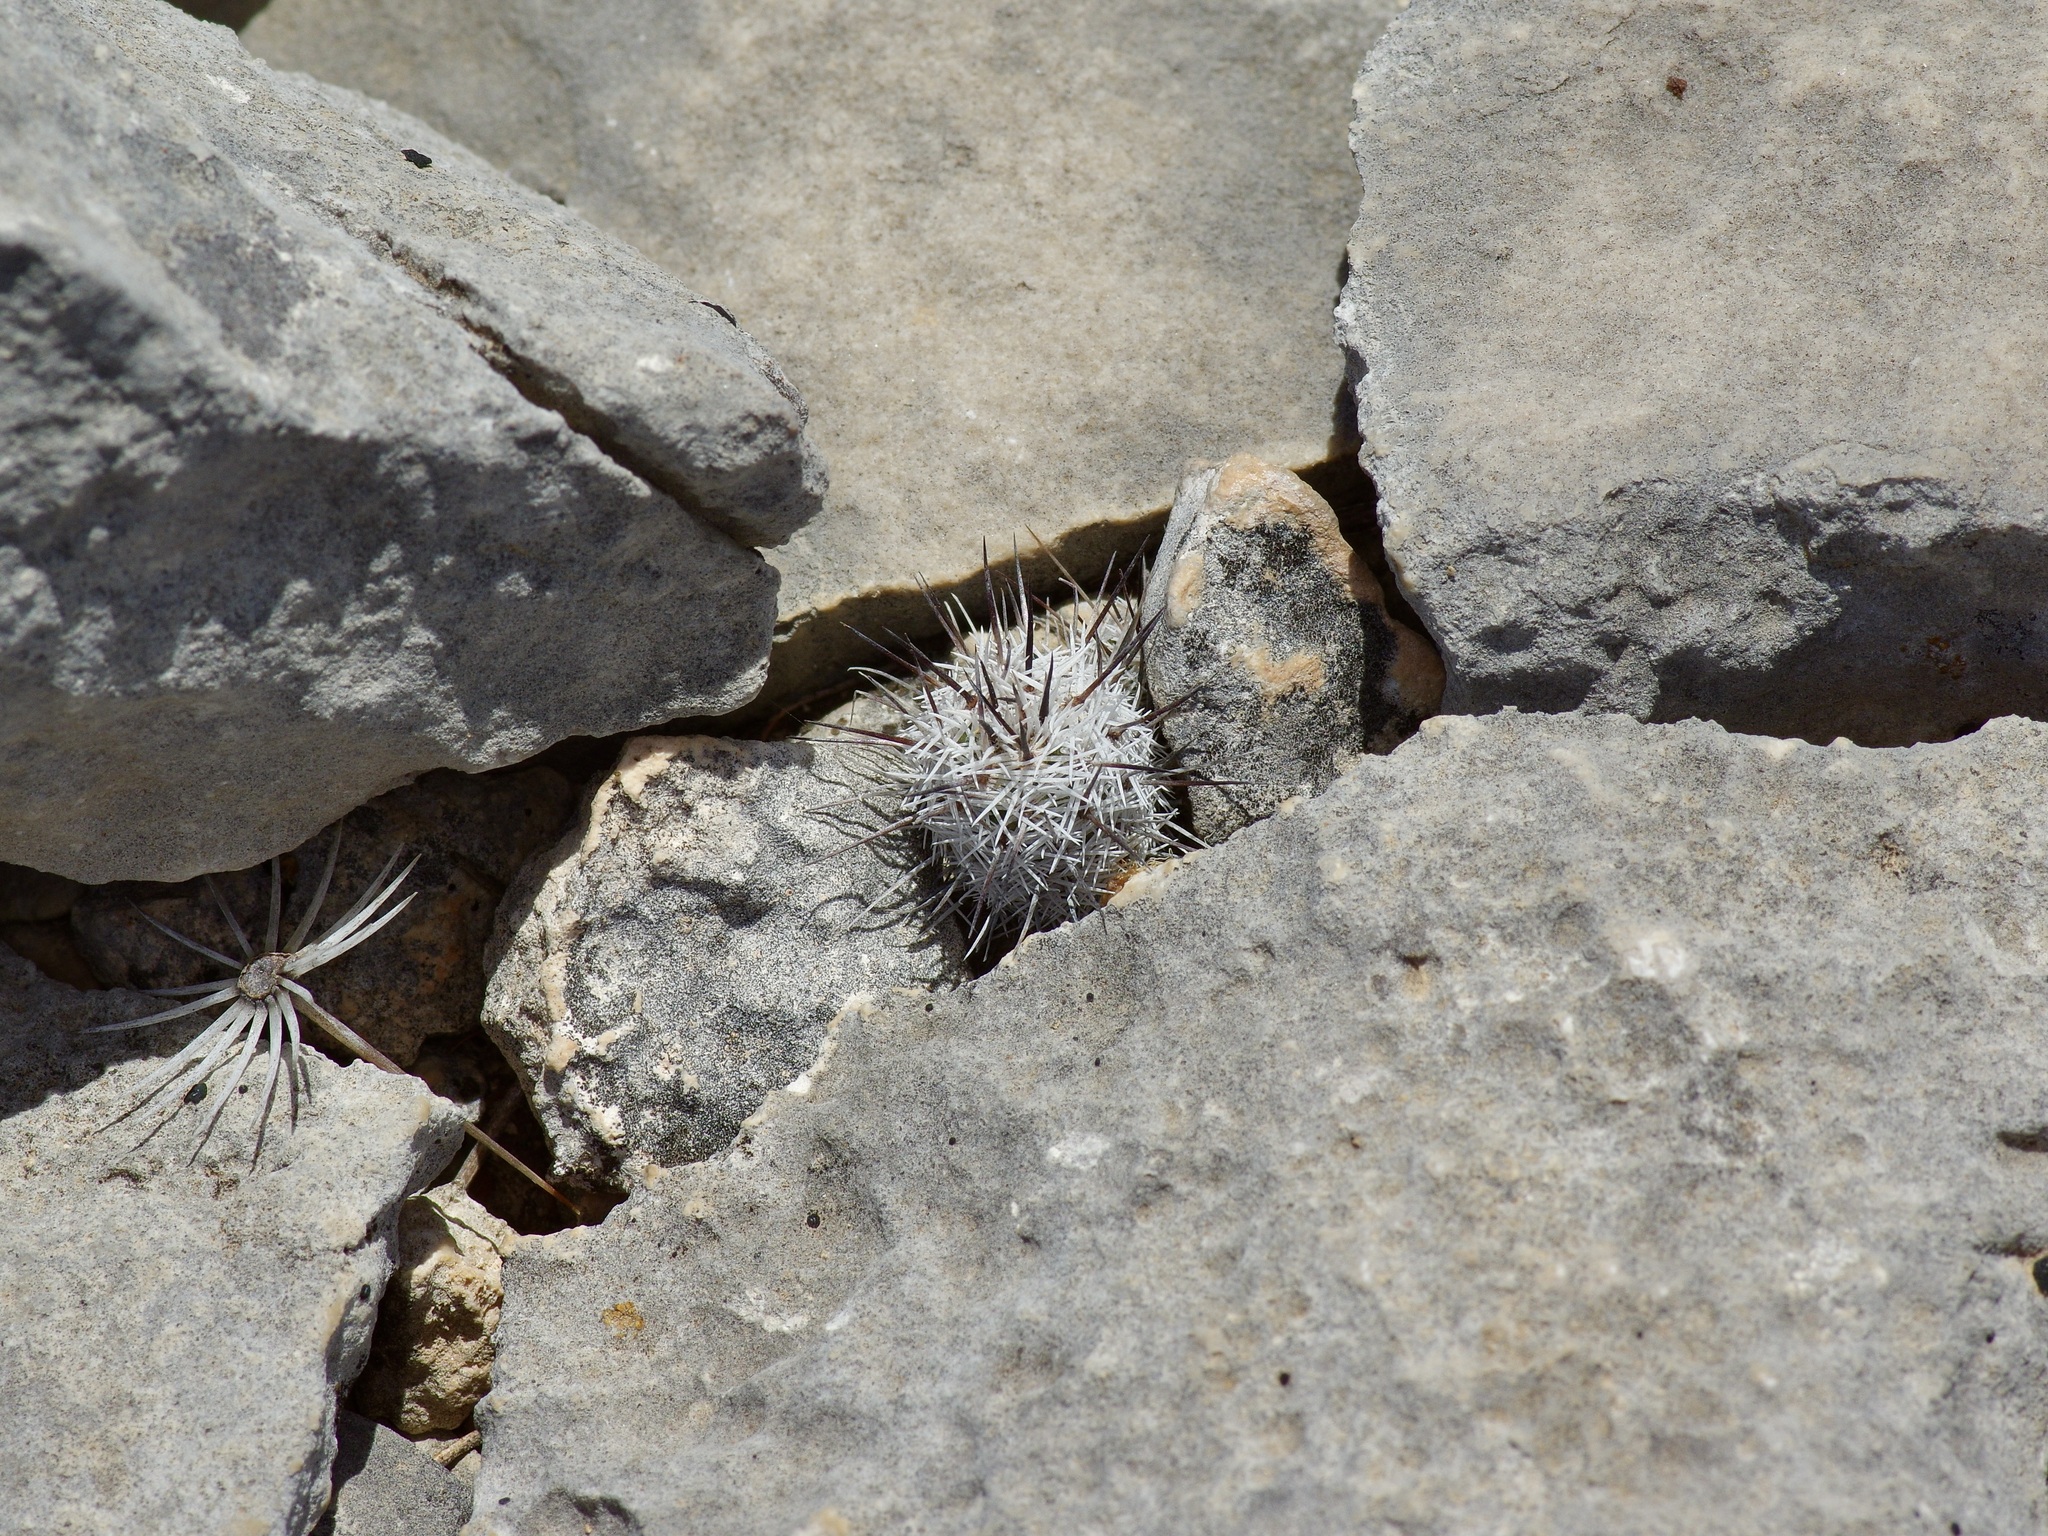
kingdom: Plantae
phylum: Tracheophyta
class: Magnoliopsida
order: Caryophyllales
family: Cactaceae
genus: Cochemiea
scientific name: Cochemiea conoidea
